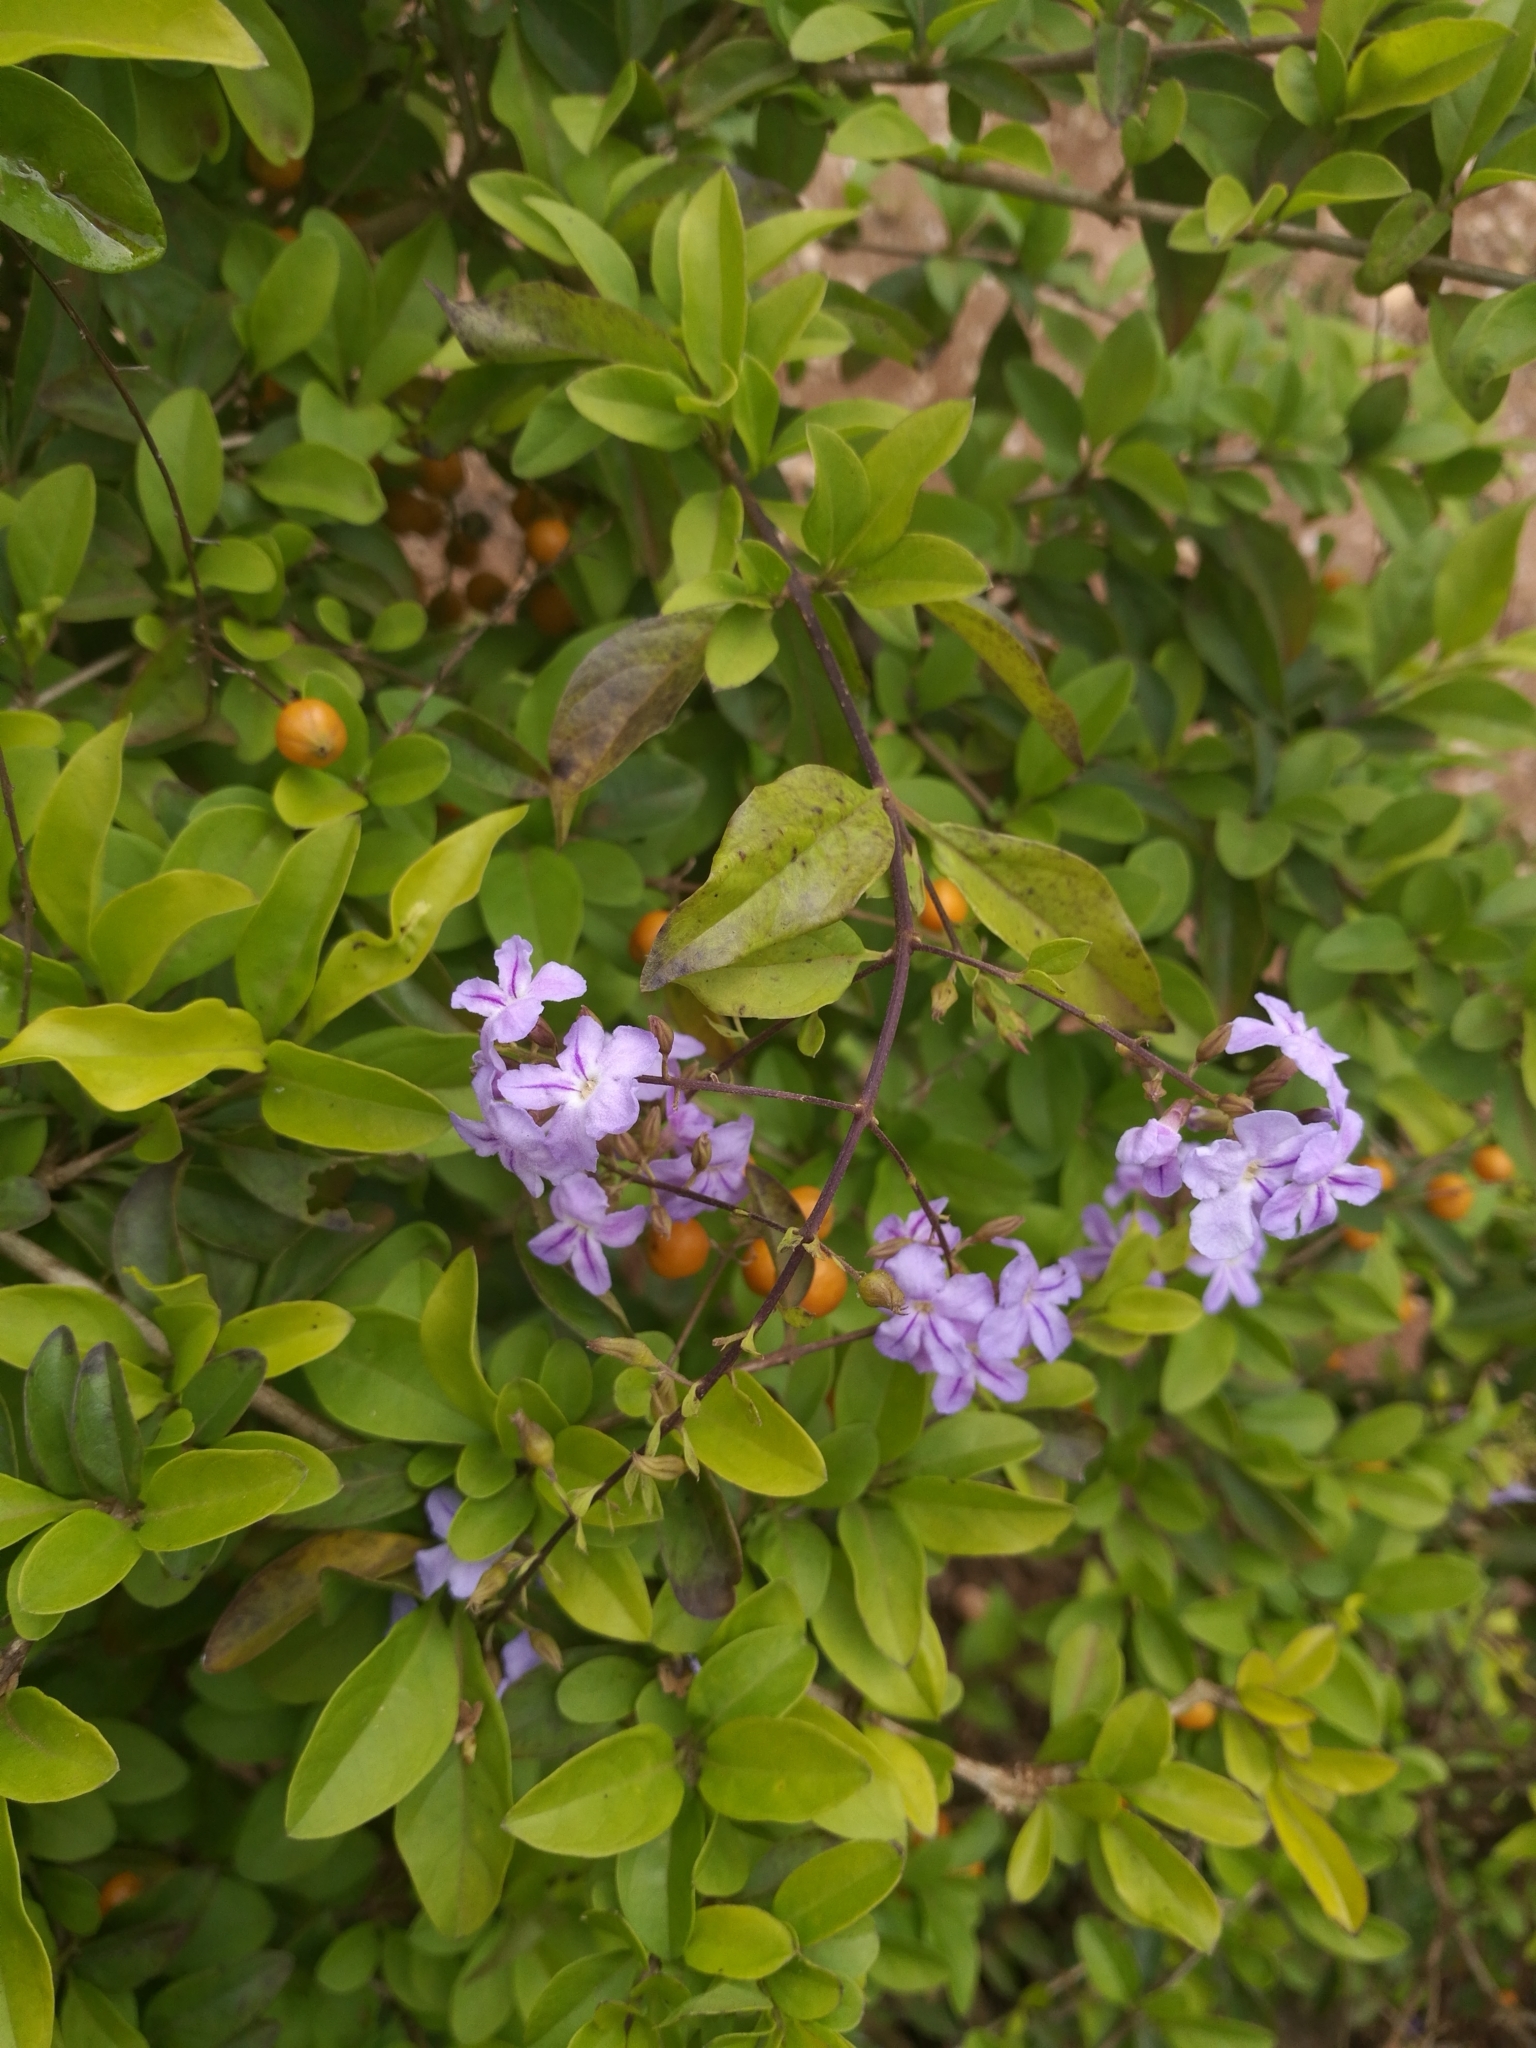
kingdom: Plantae
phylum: Tracheophyta
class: Magnoliopsida
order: Lamiales
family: Verbenaceae
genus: Duranta
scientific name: Duranta erecta
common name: Golden dewdrops
